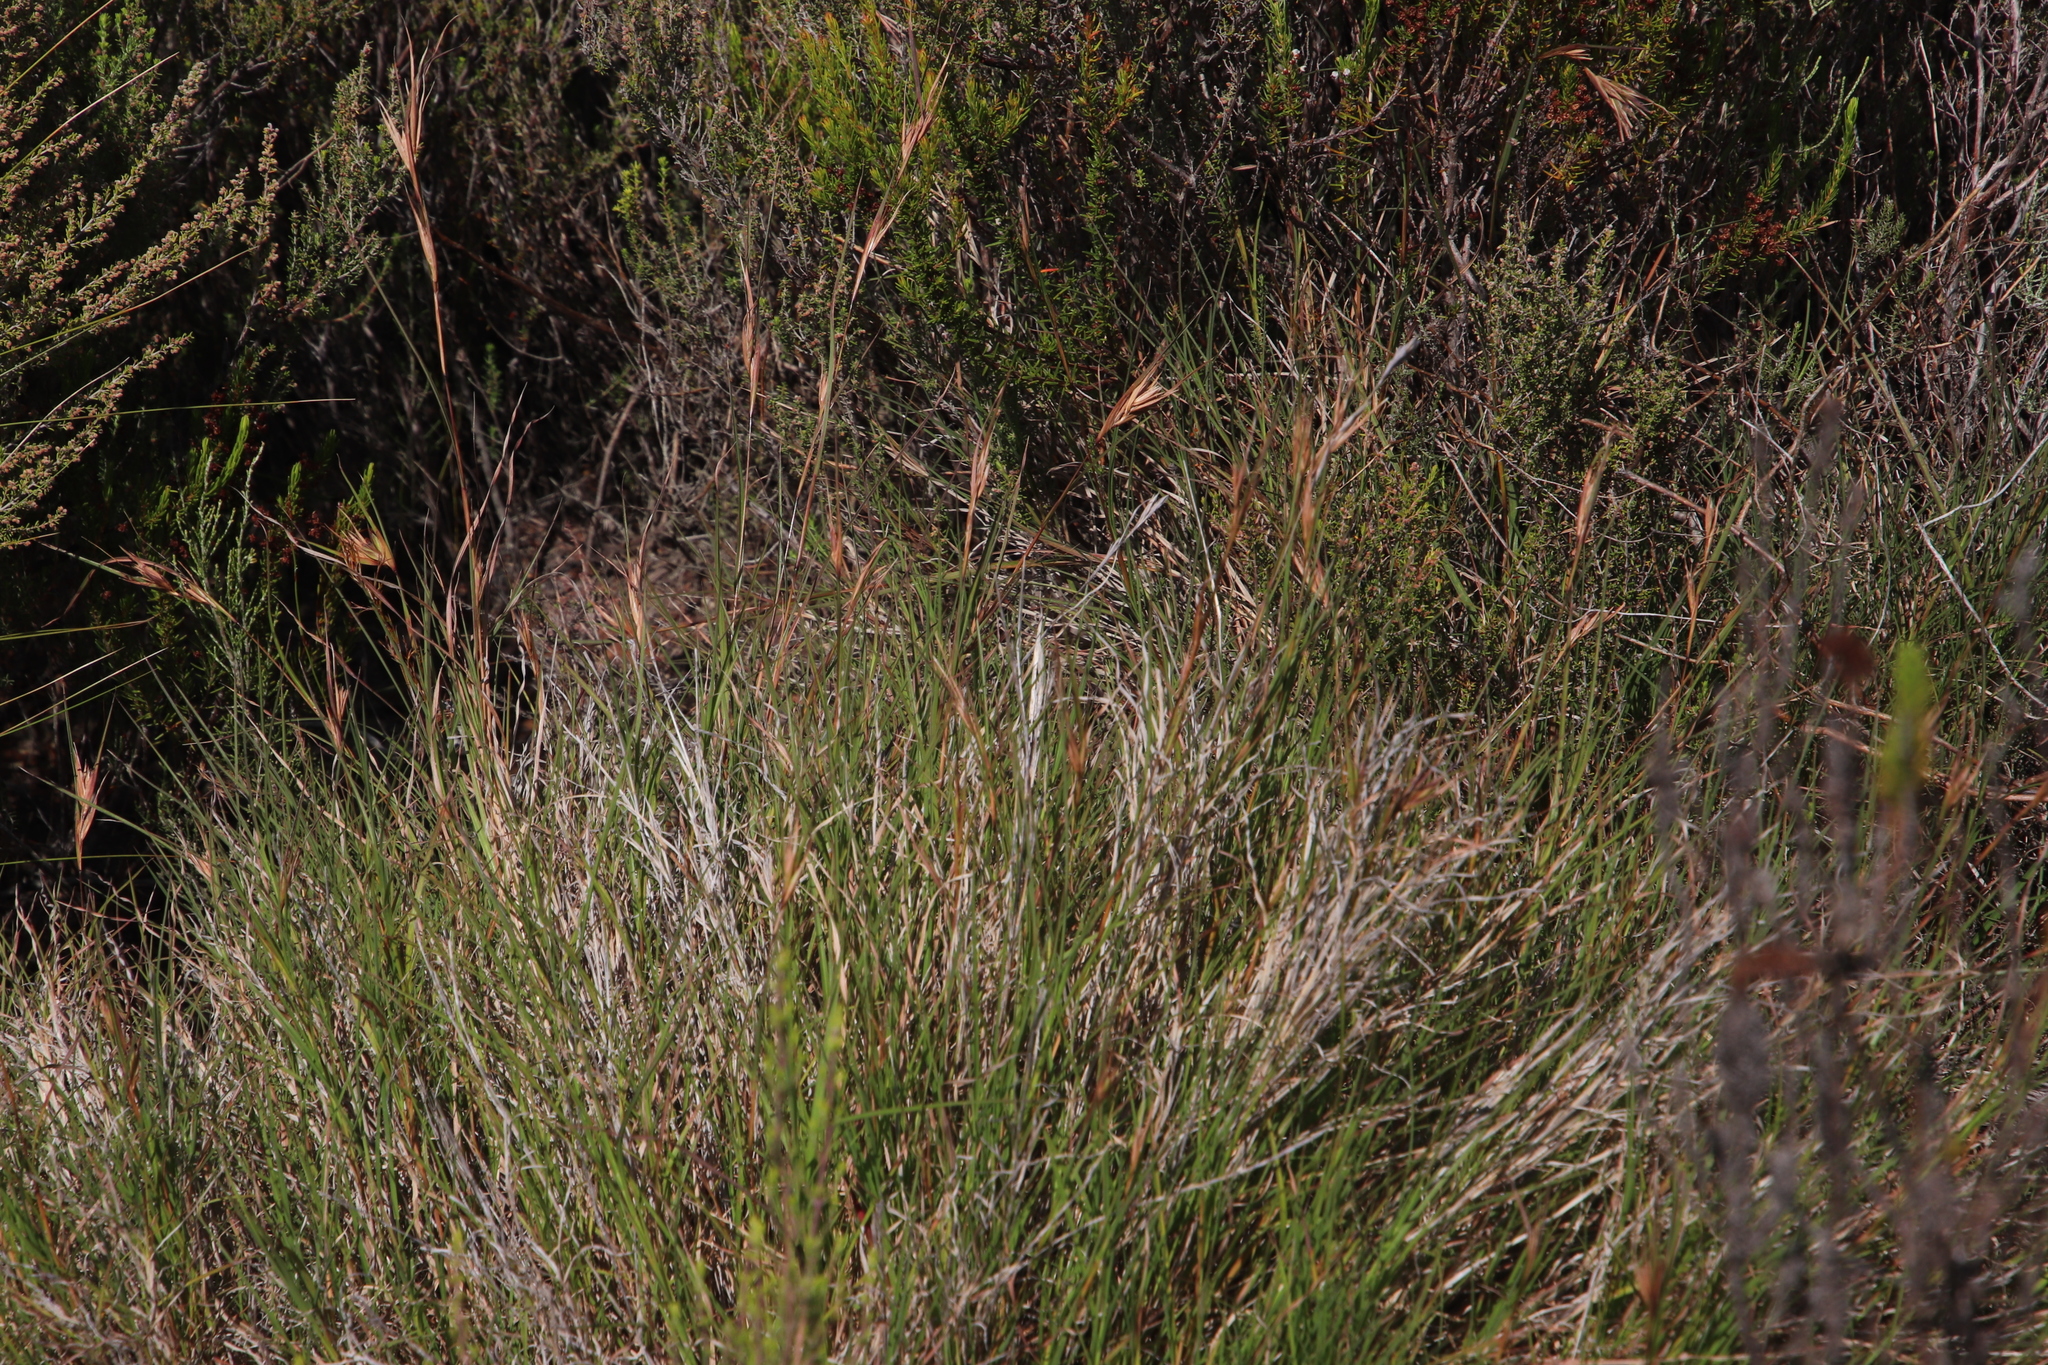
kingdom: Plantae
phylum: Tracheophyta
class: Liliopsida
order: Poales
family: Poaceae
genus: Themeda
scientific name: Themeda triandra
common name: Kangaroo grass
